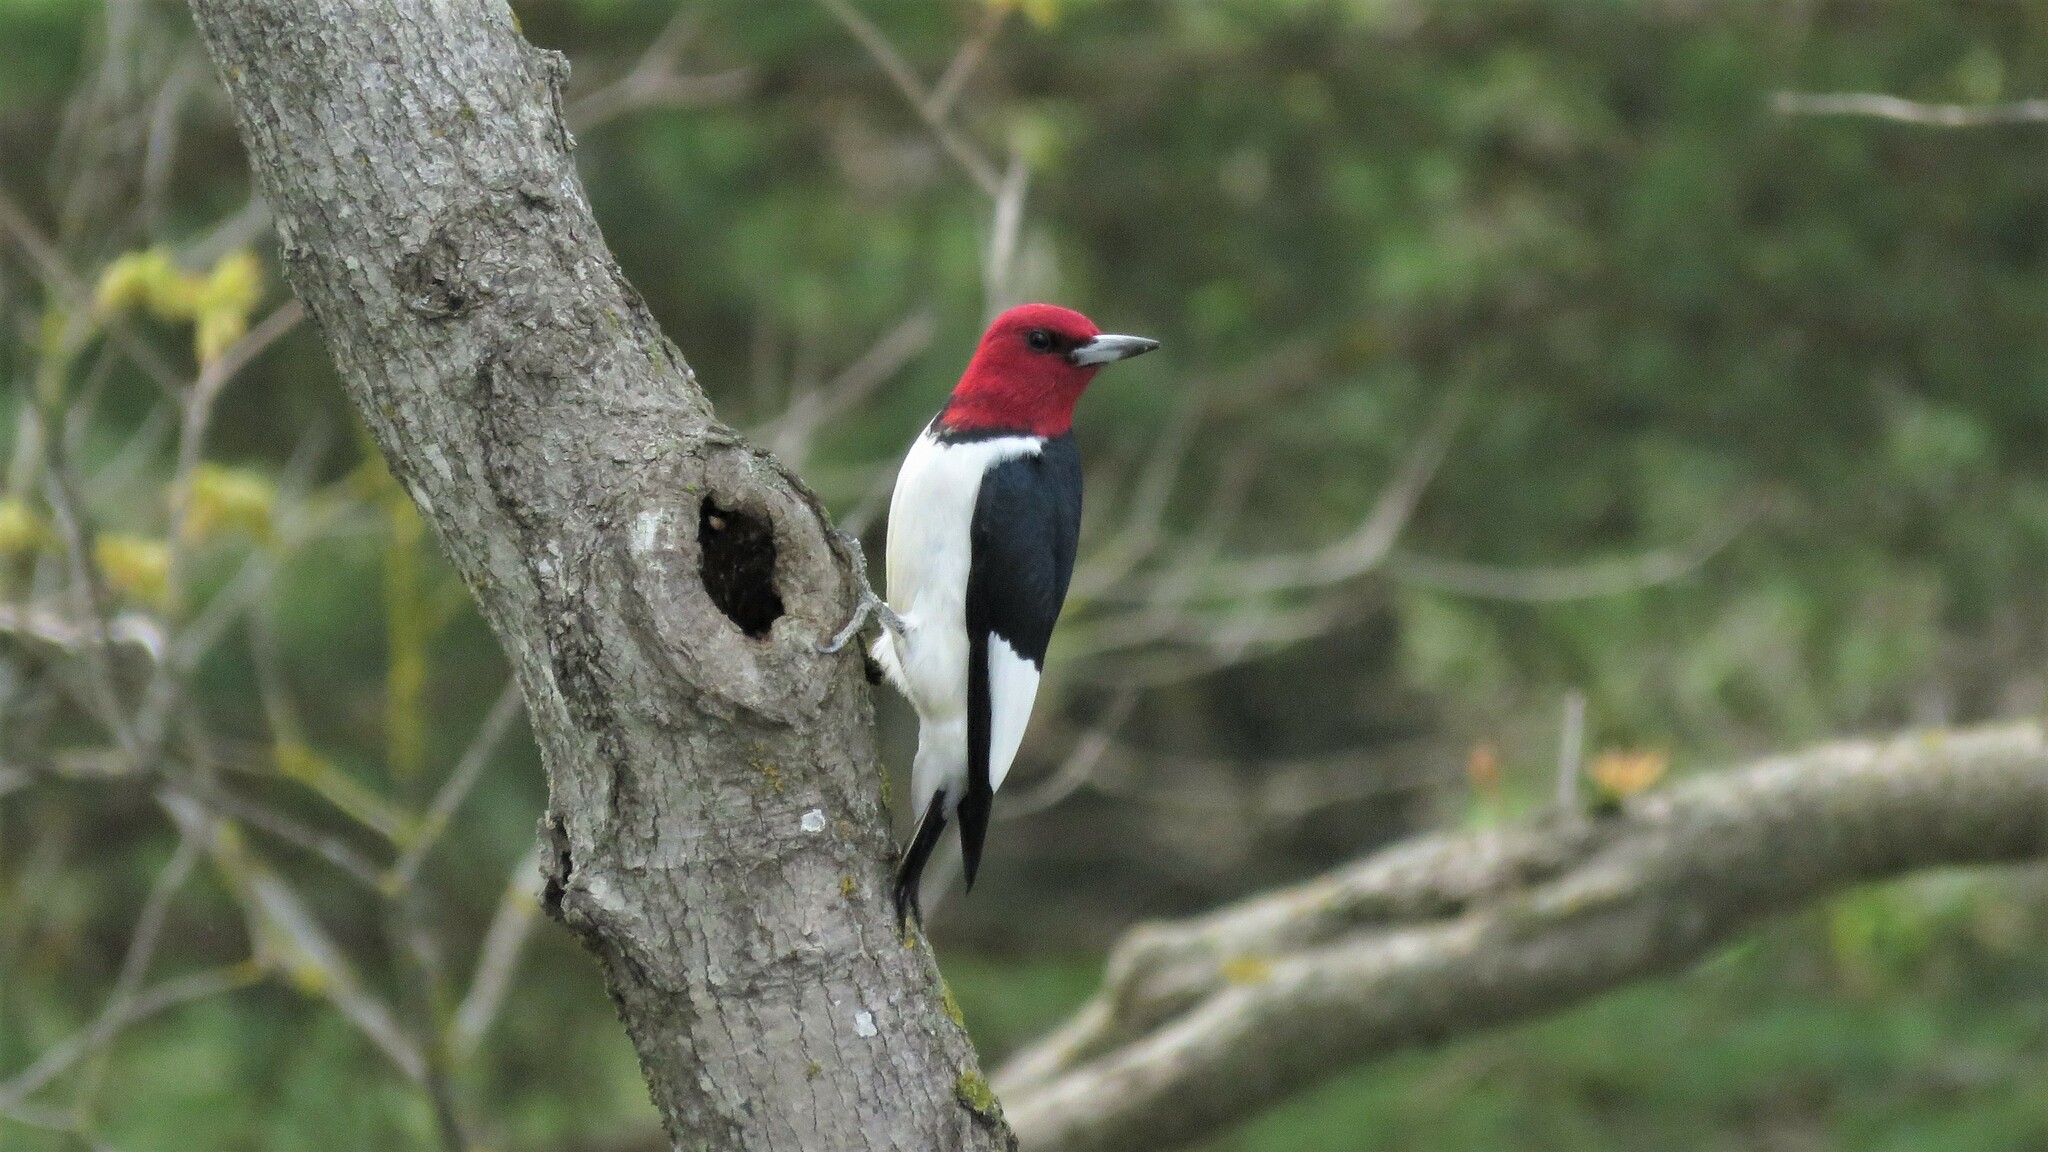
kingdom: Animalia
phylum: Chordata
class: Aves
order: Piciformes
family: Picidae
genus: Melanerpes
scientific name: Melanerpes erythrocephalus
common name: Red-headed woodpecker
